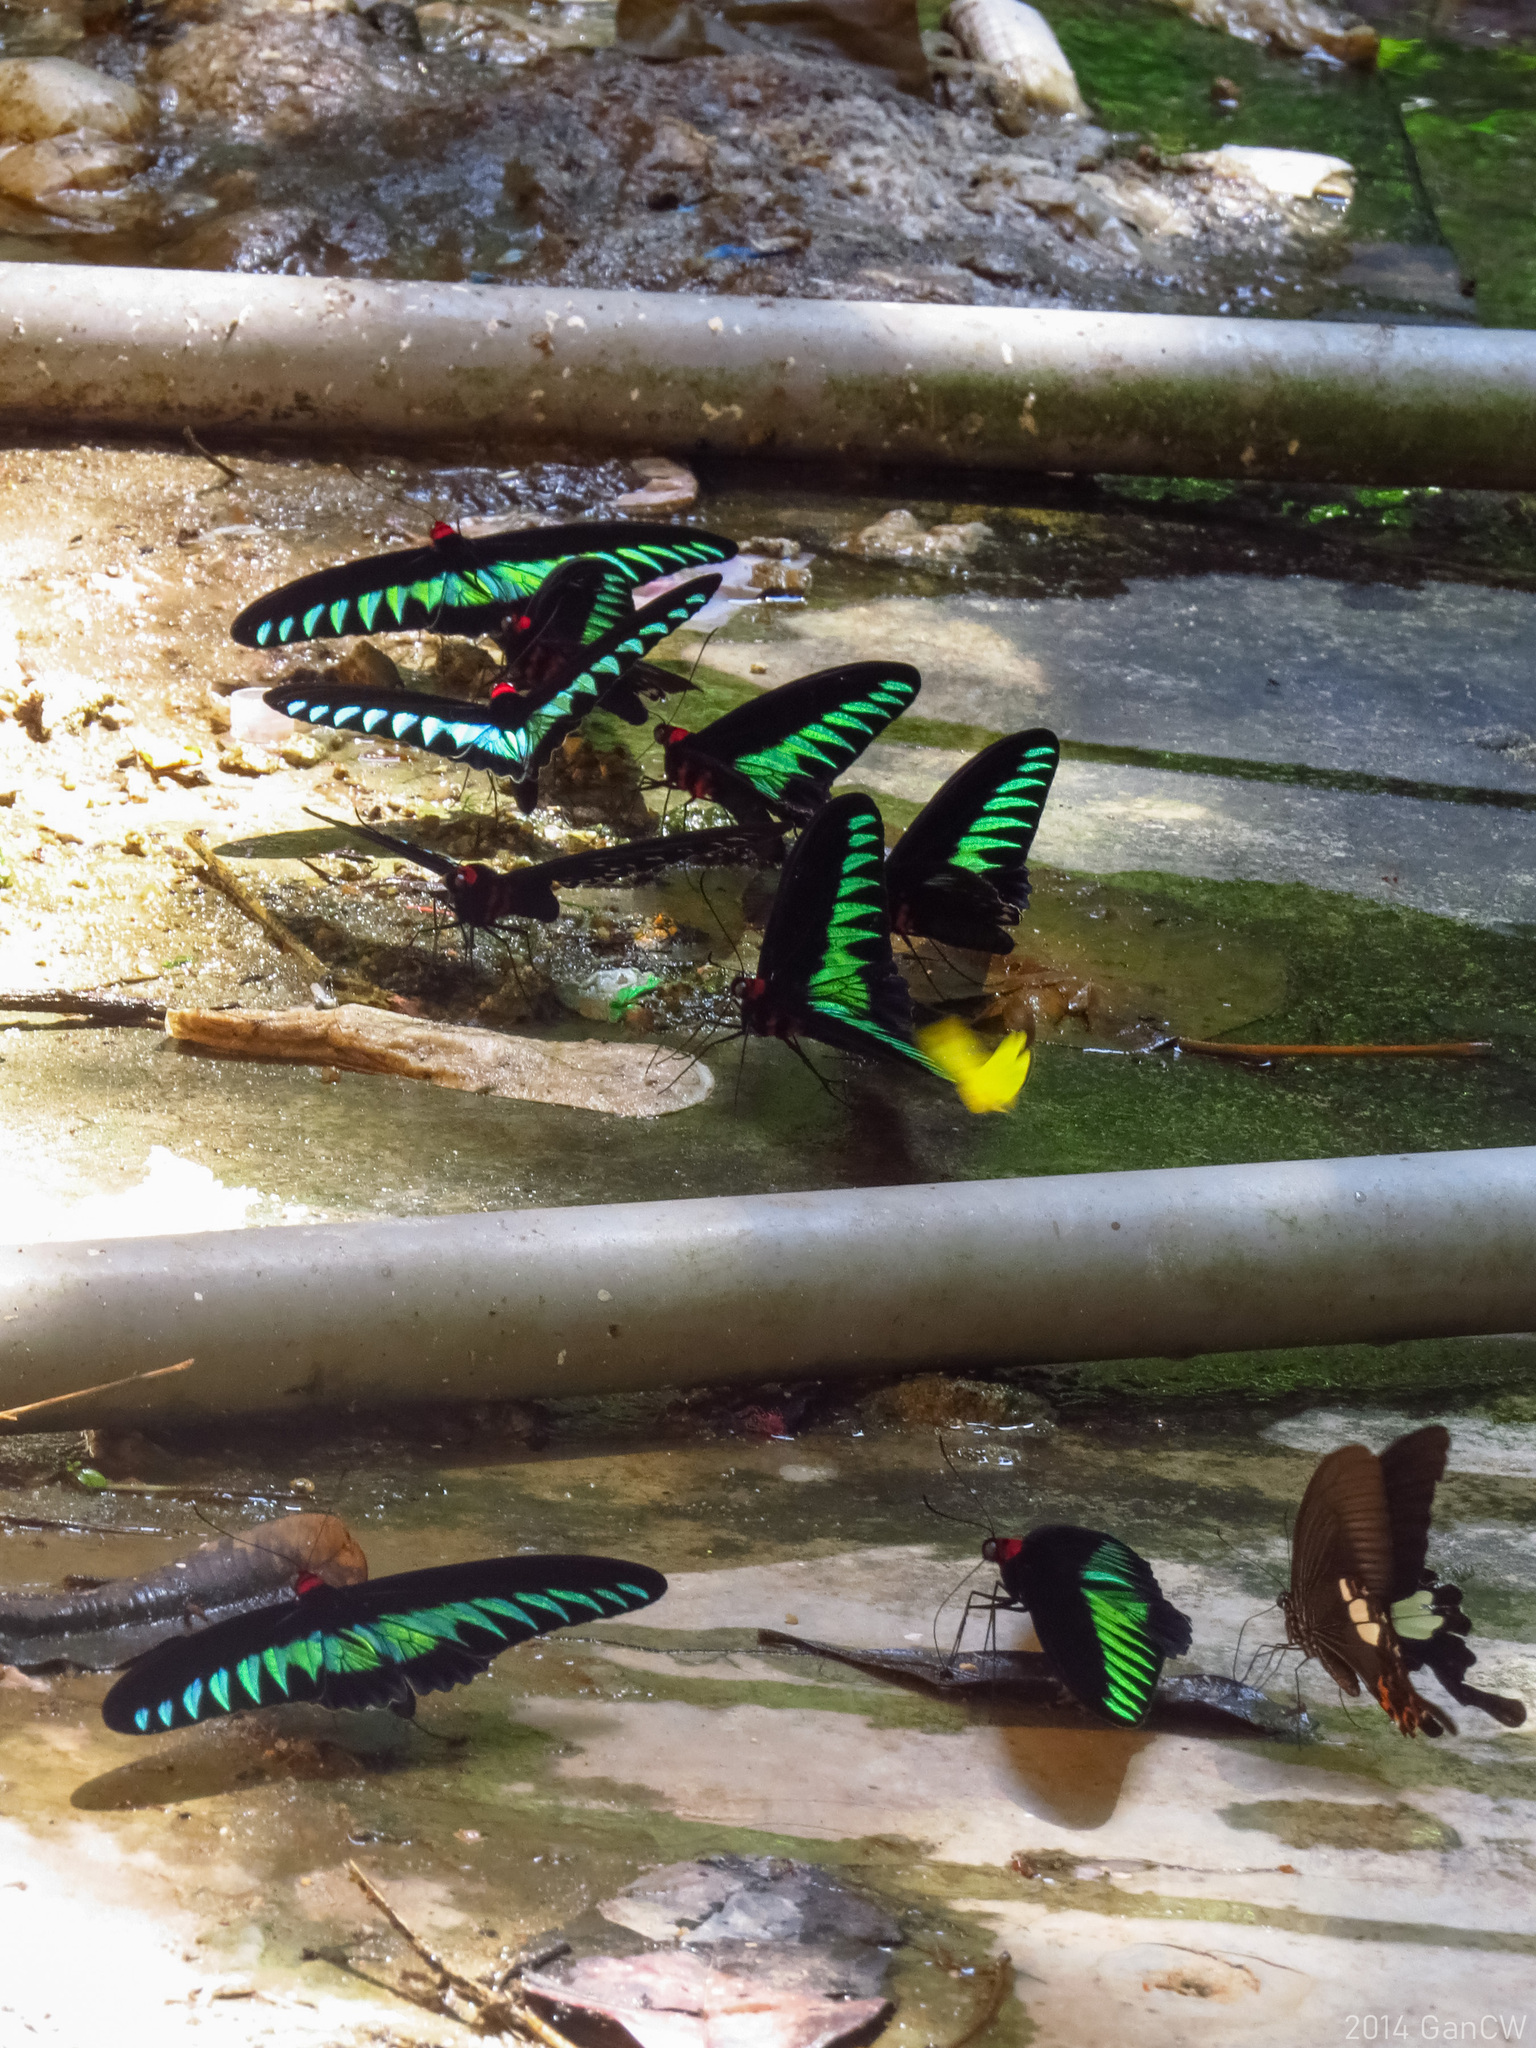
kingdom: Animalia
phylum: Arthropoda
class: Insecta
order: Lepidoptera
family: Papilionidae
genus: Trogonoptera
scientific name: Trogonoptera brookiana
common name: Raja brooke's birdwing
